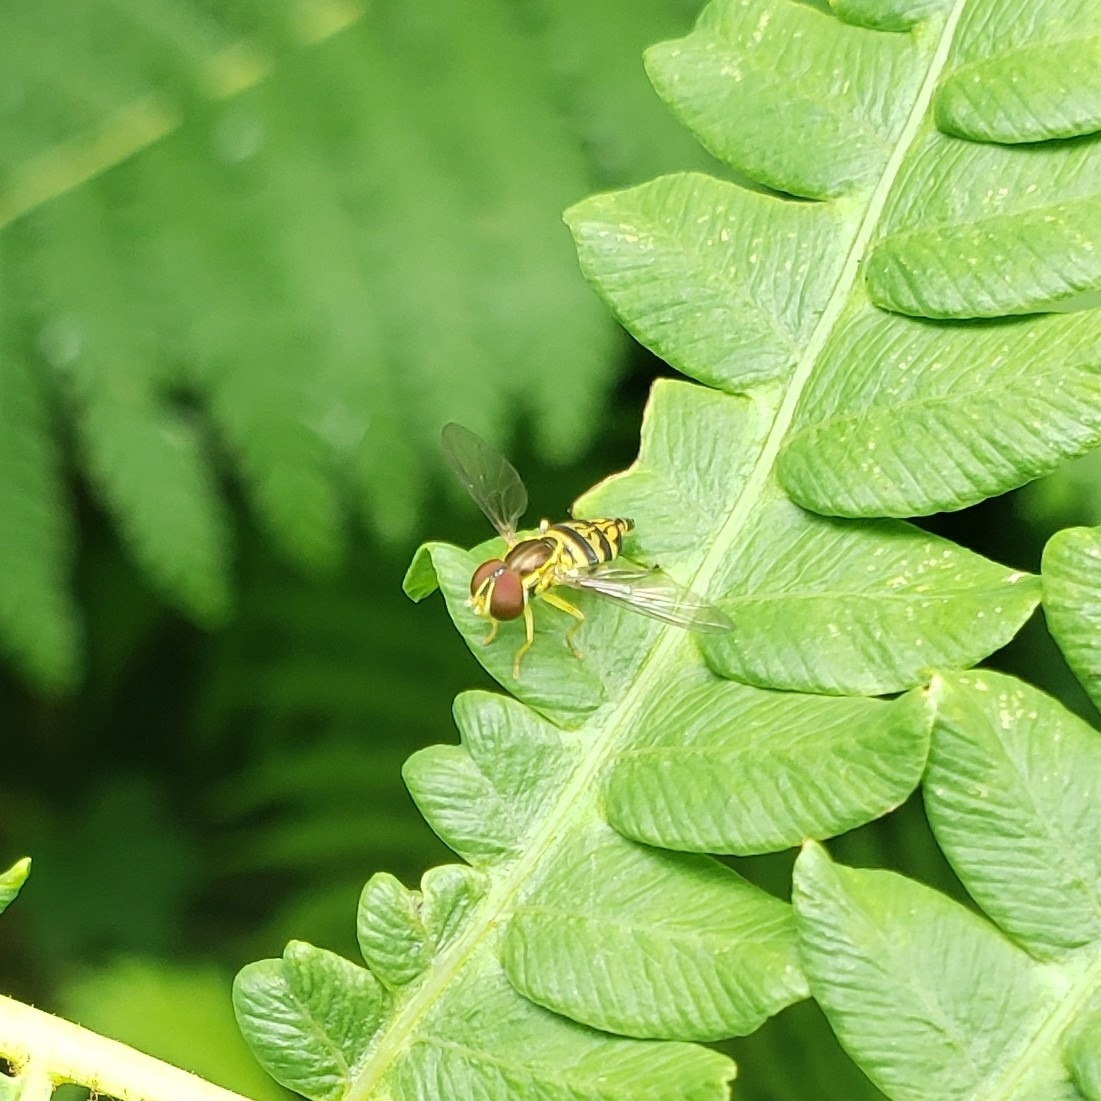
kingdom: Animalia
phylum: Arthropoda
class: Insecta
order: Diptera
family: Syrphidae
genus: Toxomerus
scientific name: Toxomerus geminatus
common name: Eastern calligrapher
